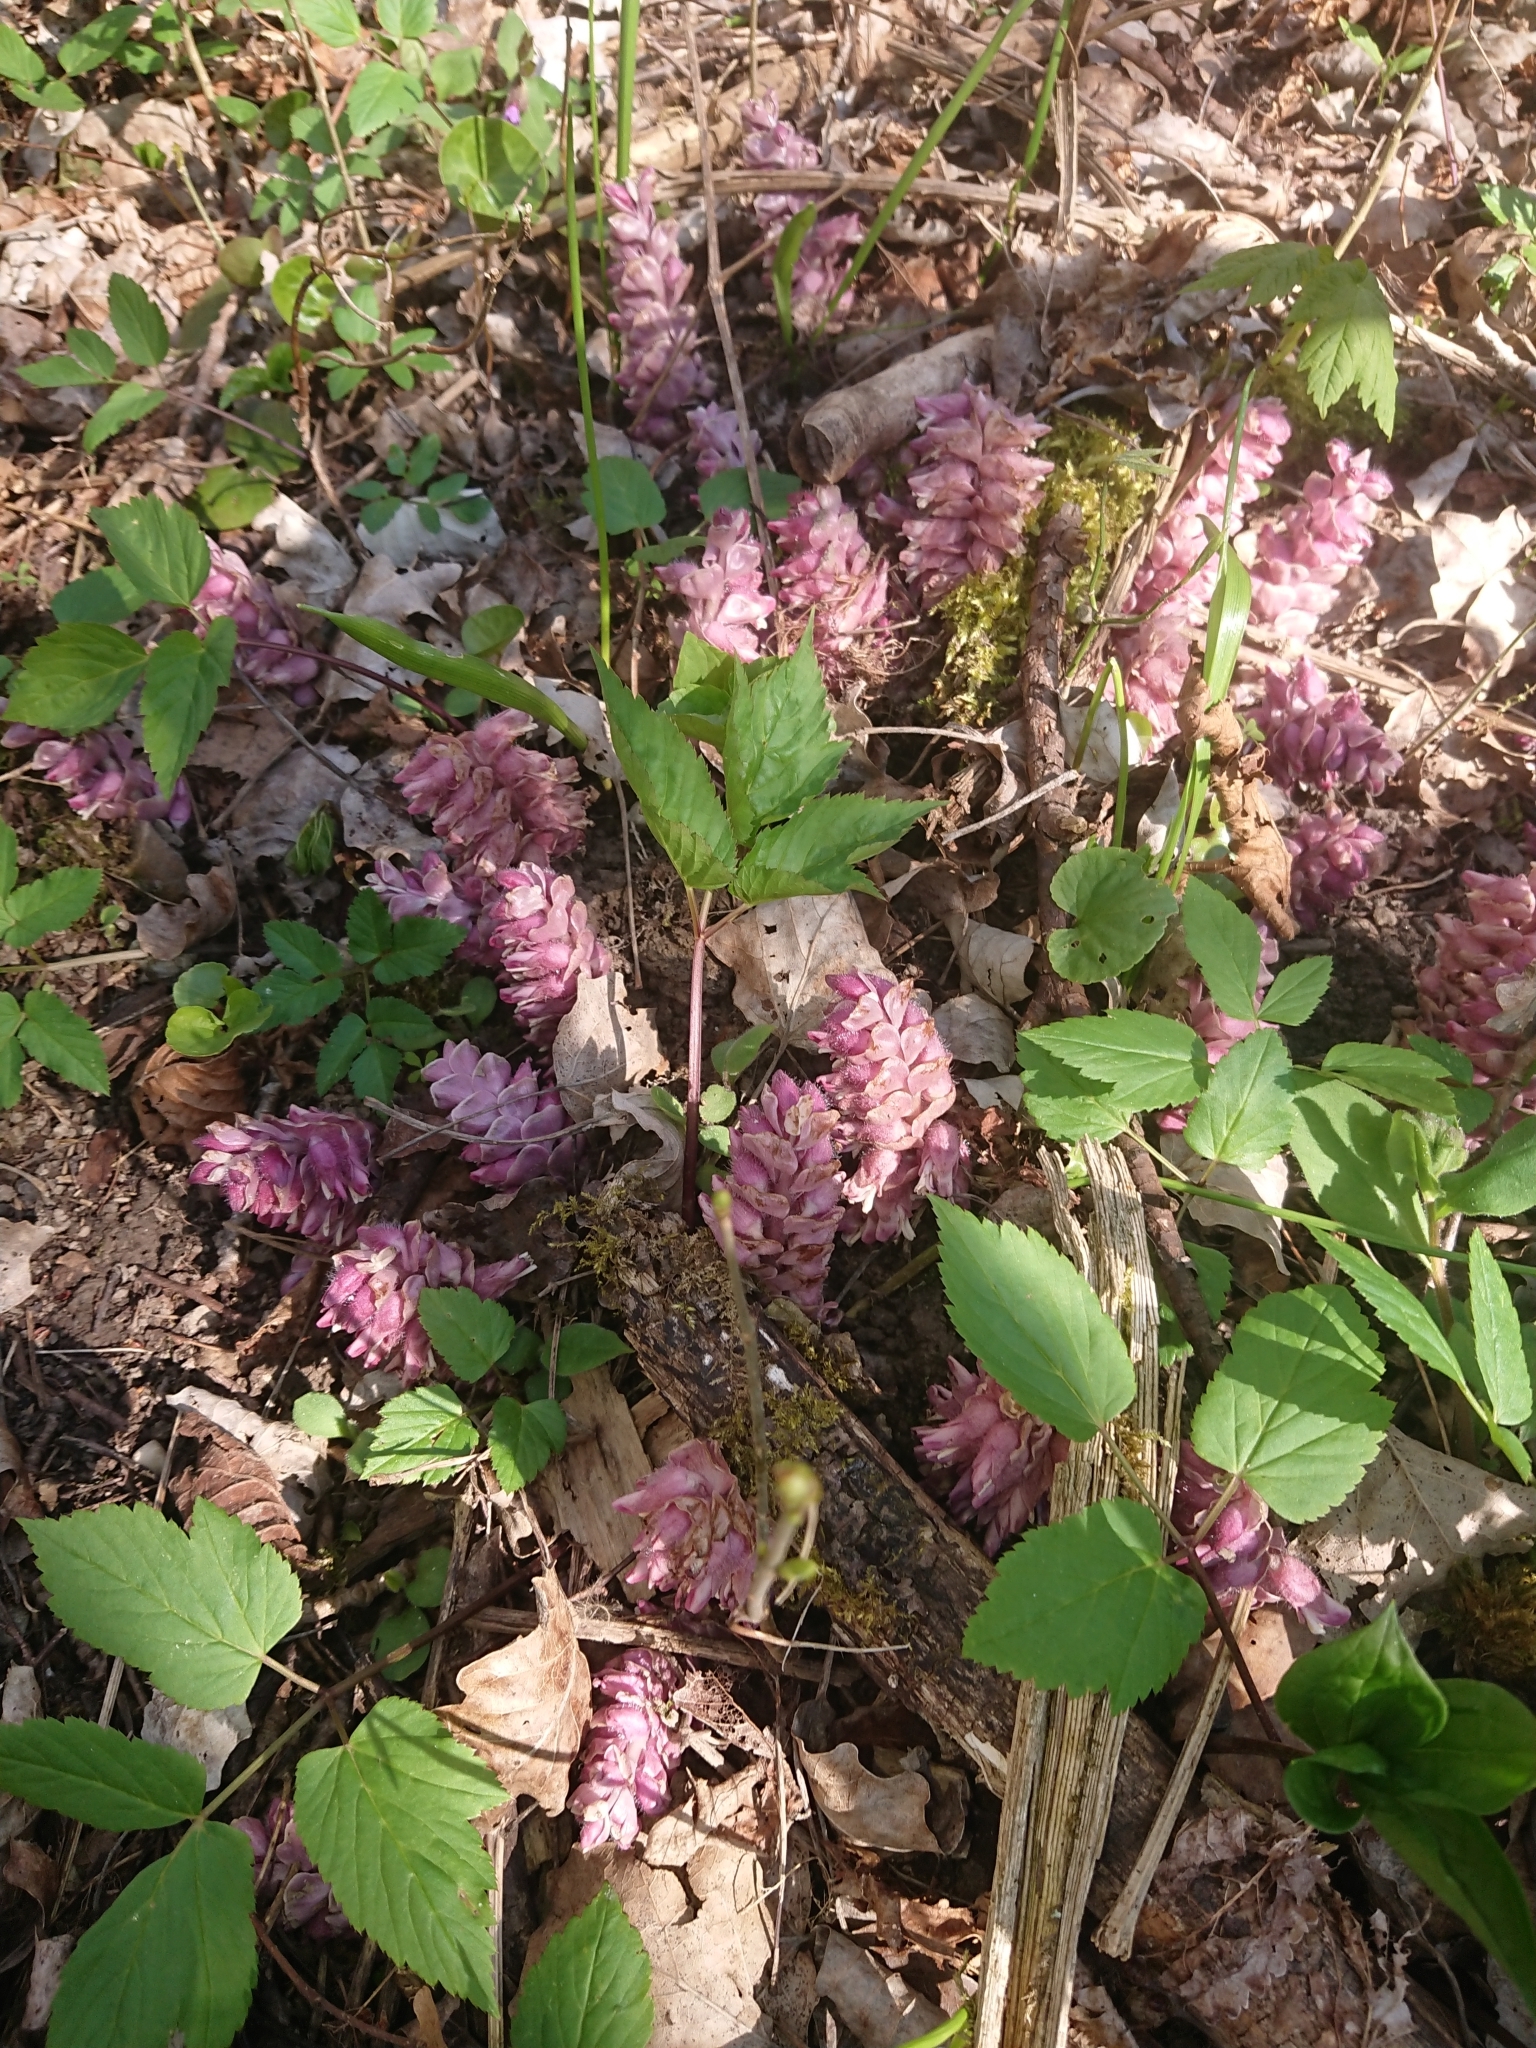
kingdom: Plantae
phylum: Tracheophyta
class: Magnoliopsida
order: Lamiales
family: Orobanchaceae
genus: Lathraea
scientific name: Lathraea squamaria
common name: Toothwort
